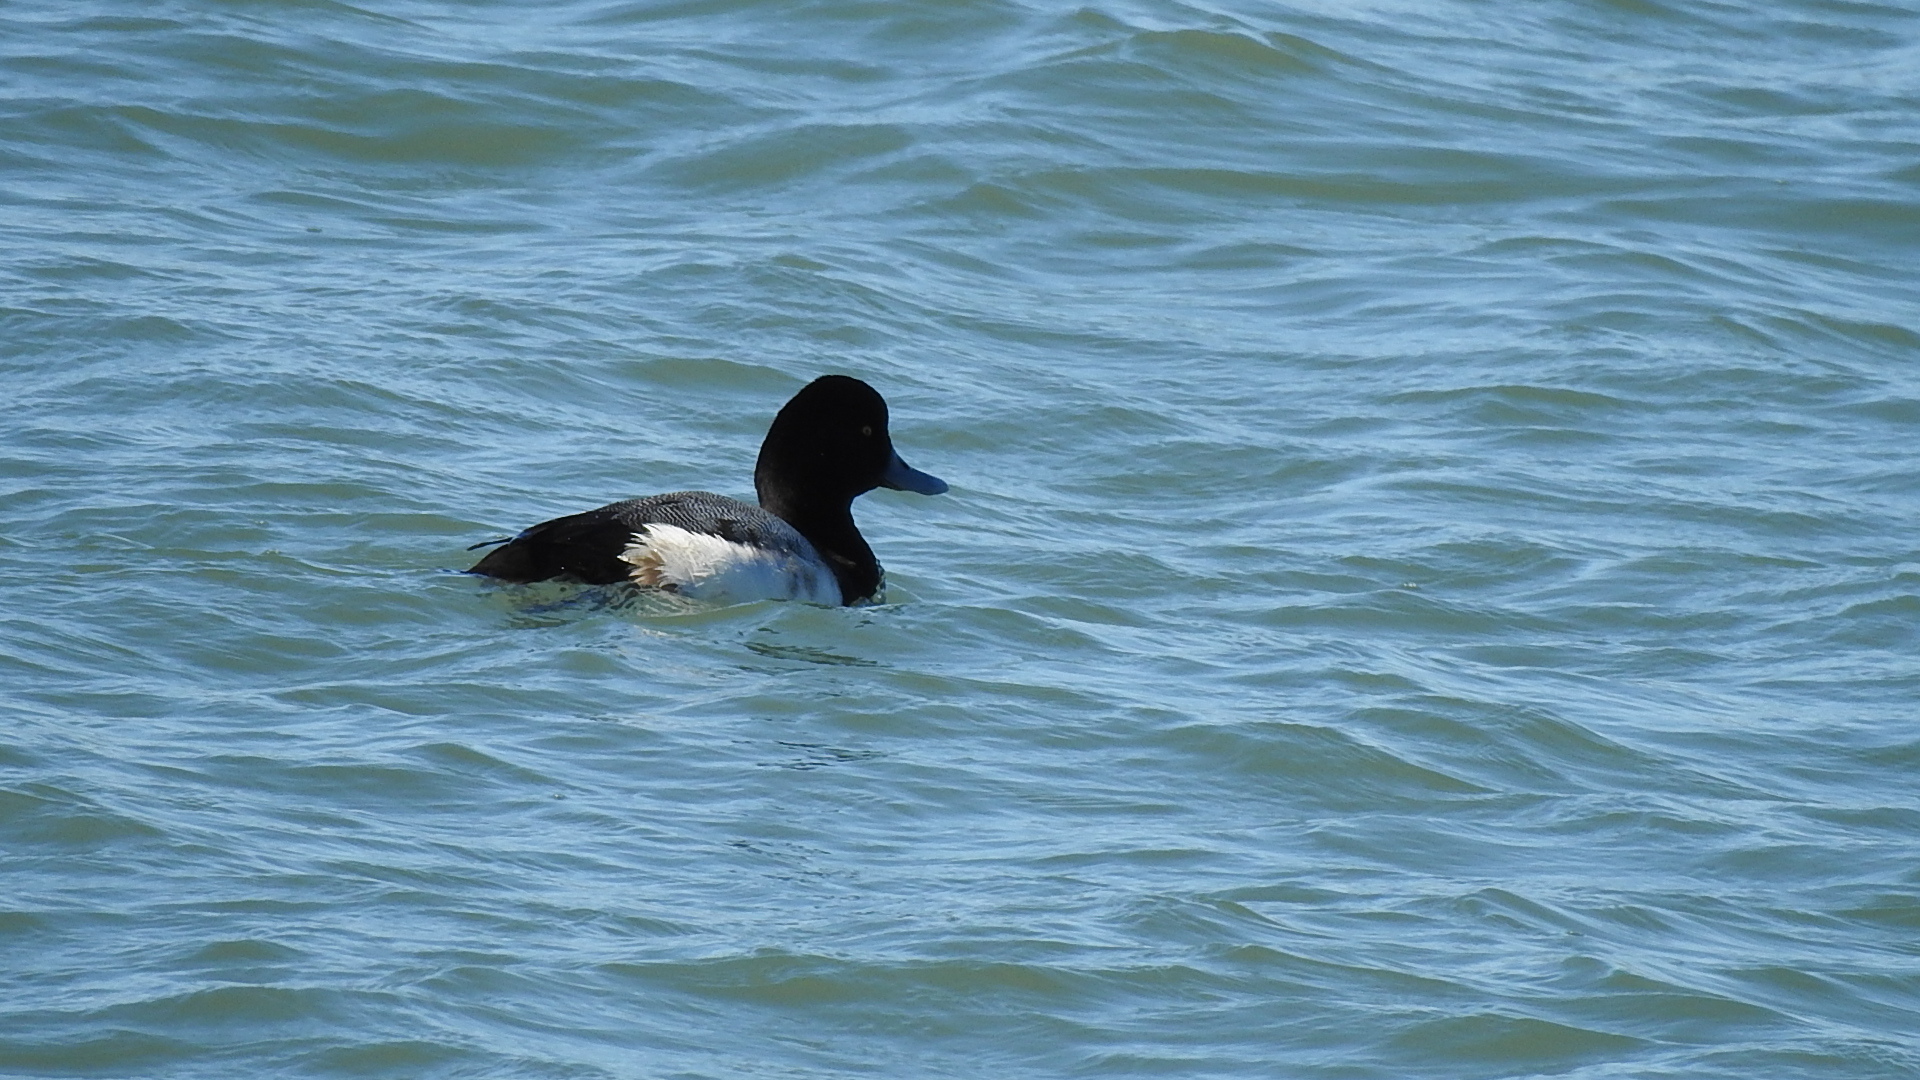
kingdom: Animalia
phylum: Chordata
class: Aves
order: Anseriformes
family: Anatidae
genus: Aythya
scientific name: Aythya affinis
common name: Lesser scaup
